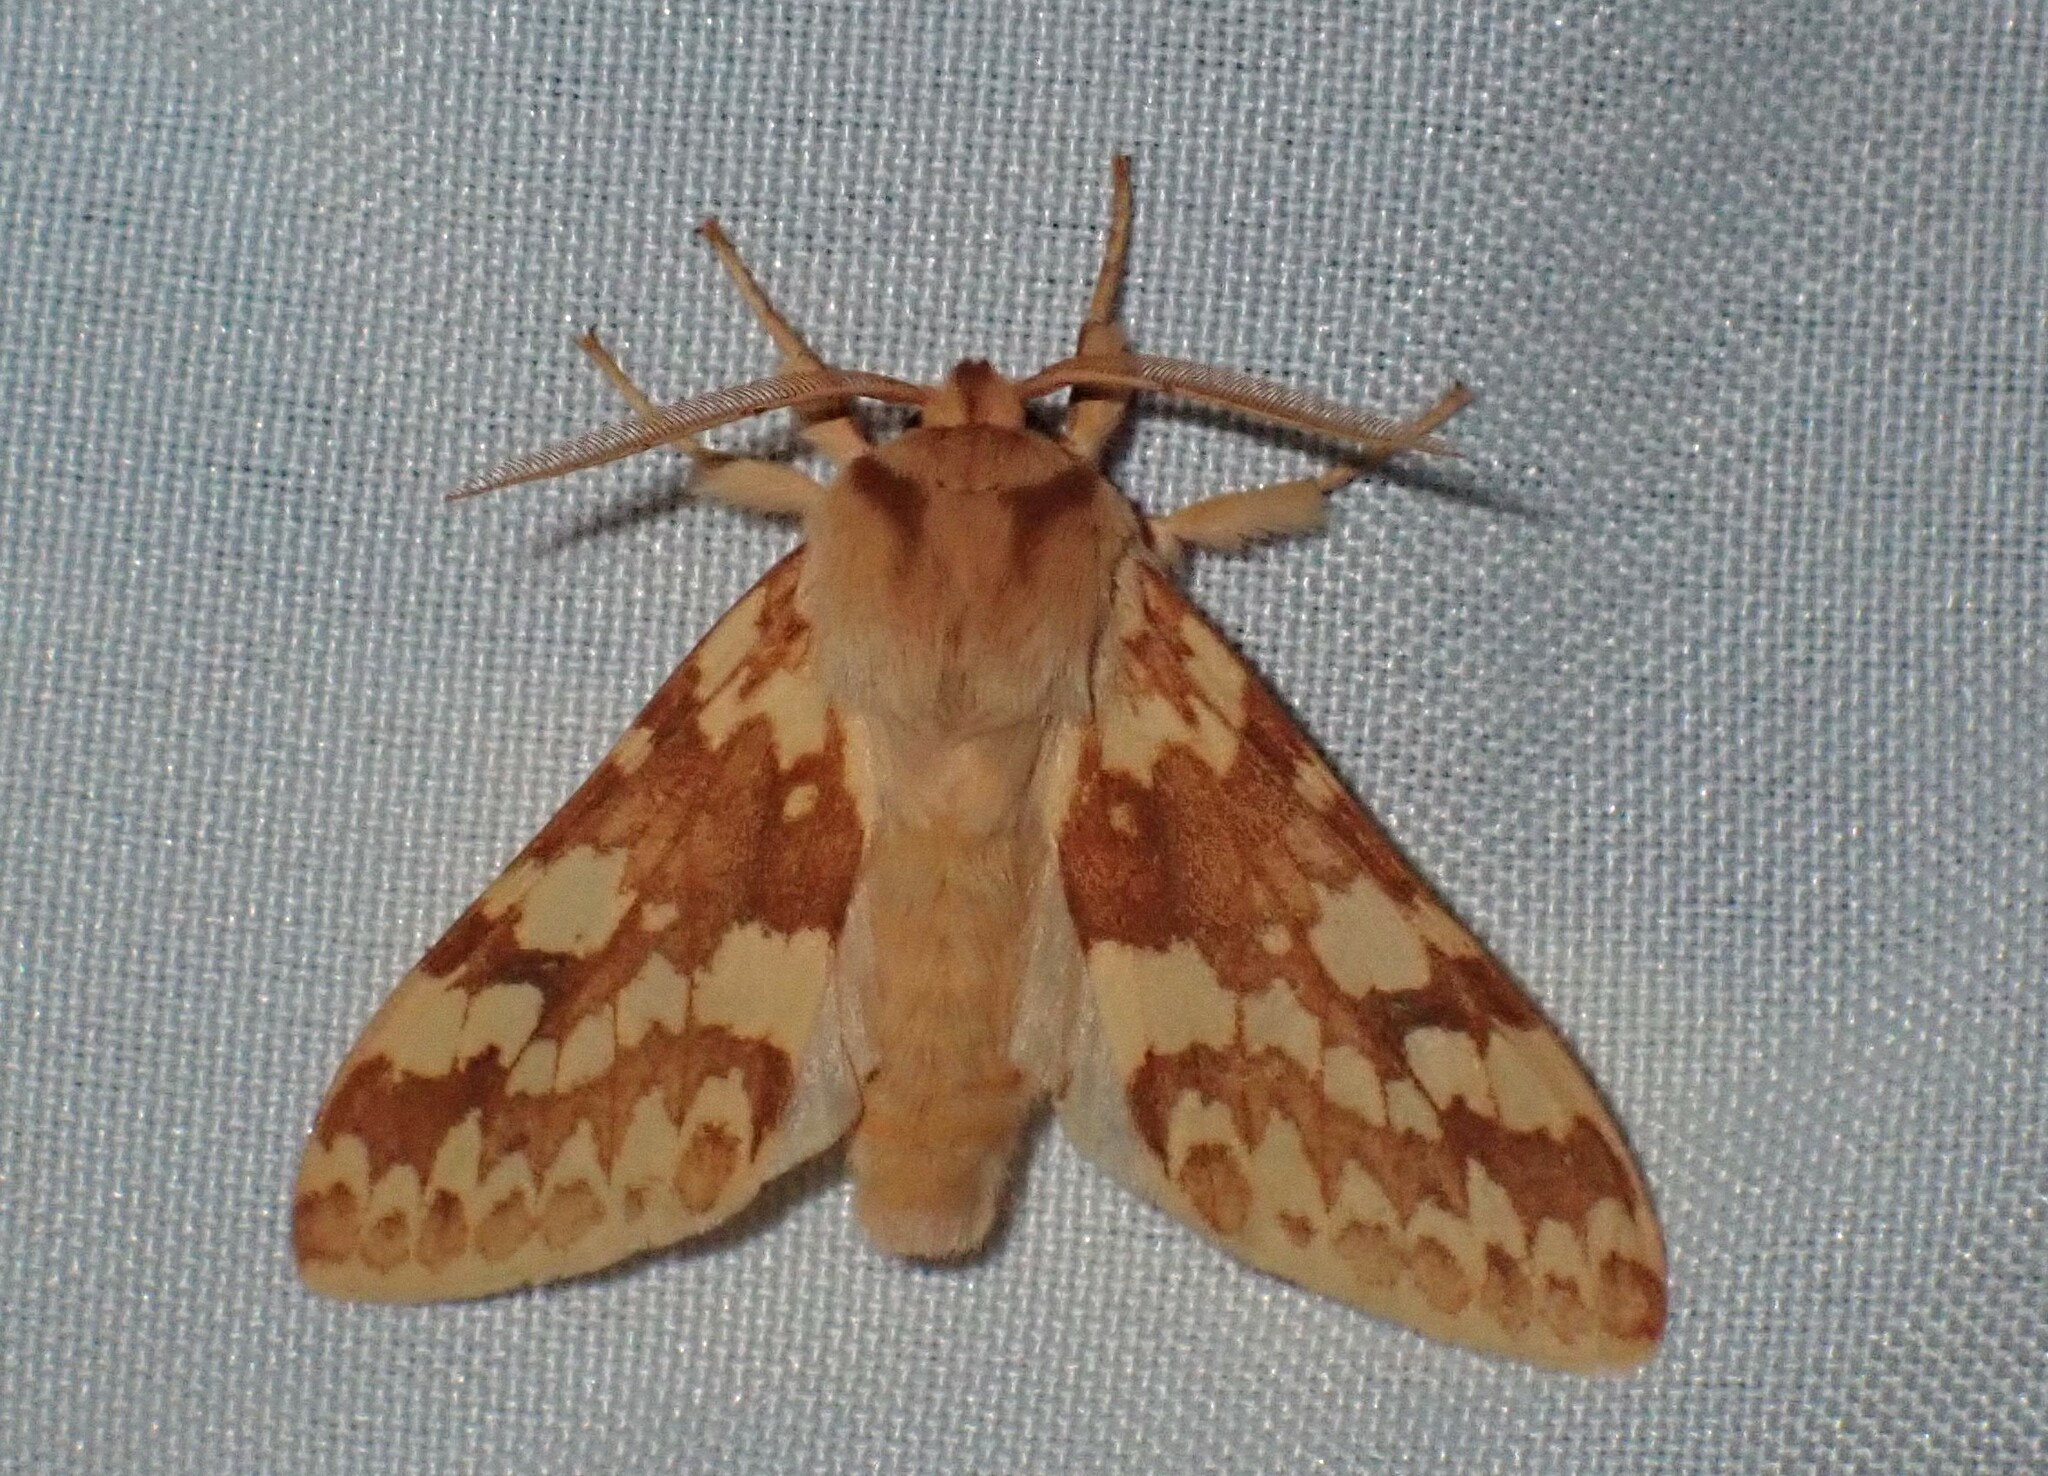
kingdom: Animalia
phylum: Arthropoda
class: Insecta
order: Lepidoptera
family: Erebidae
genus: Lophocampa
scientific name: Lophocampa maculata
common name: Spotted tussock moth
